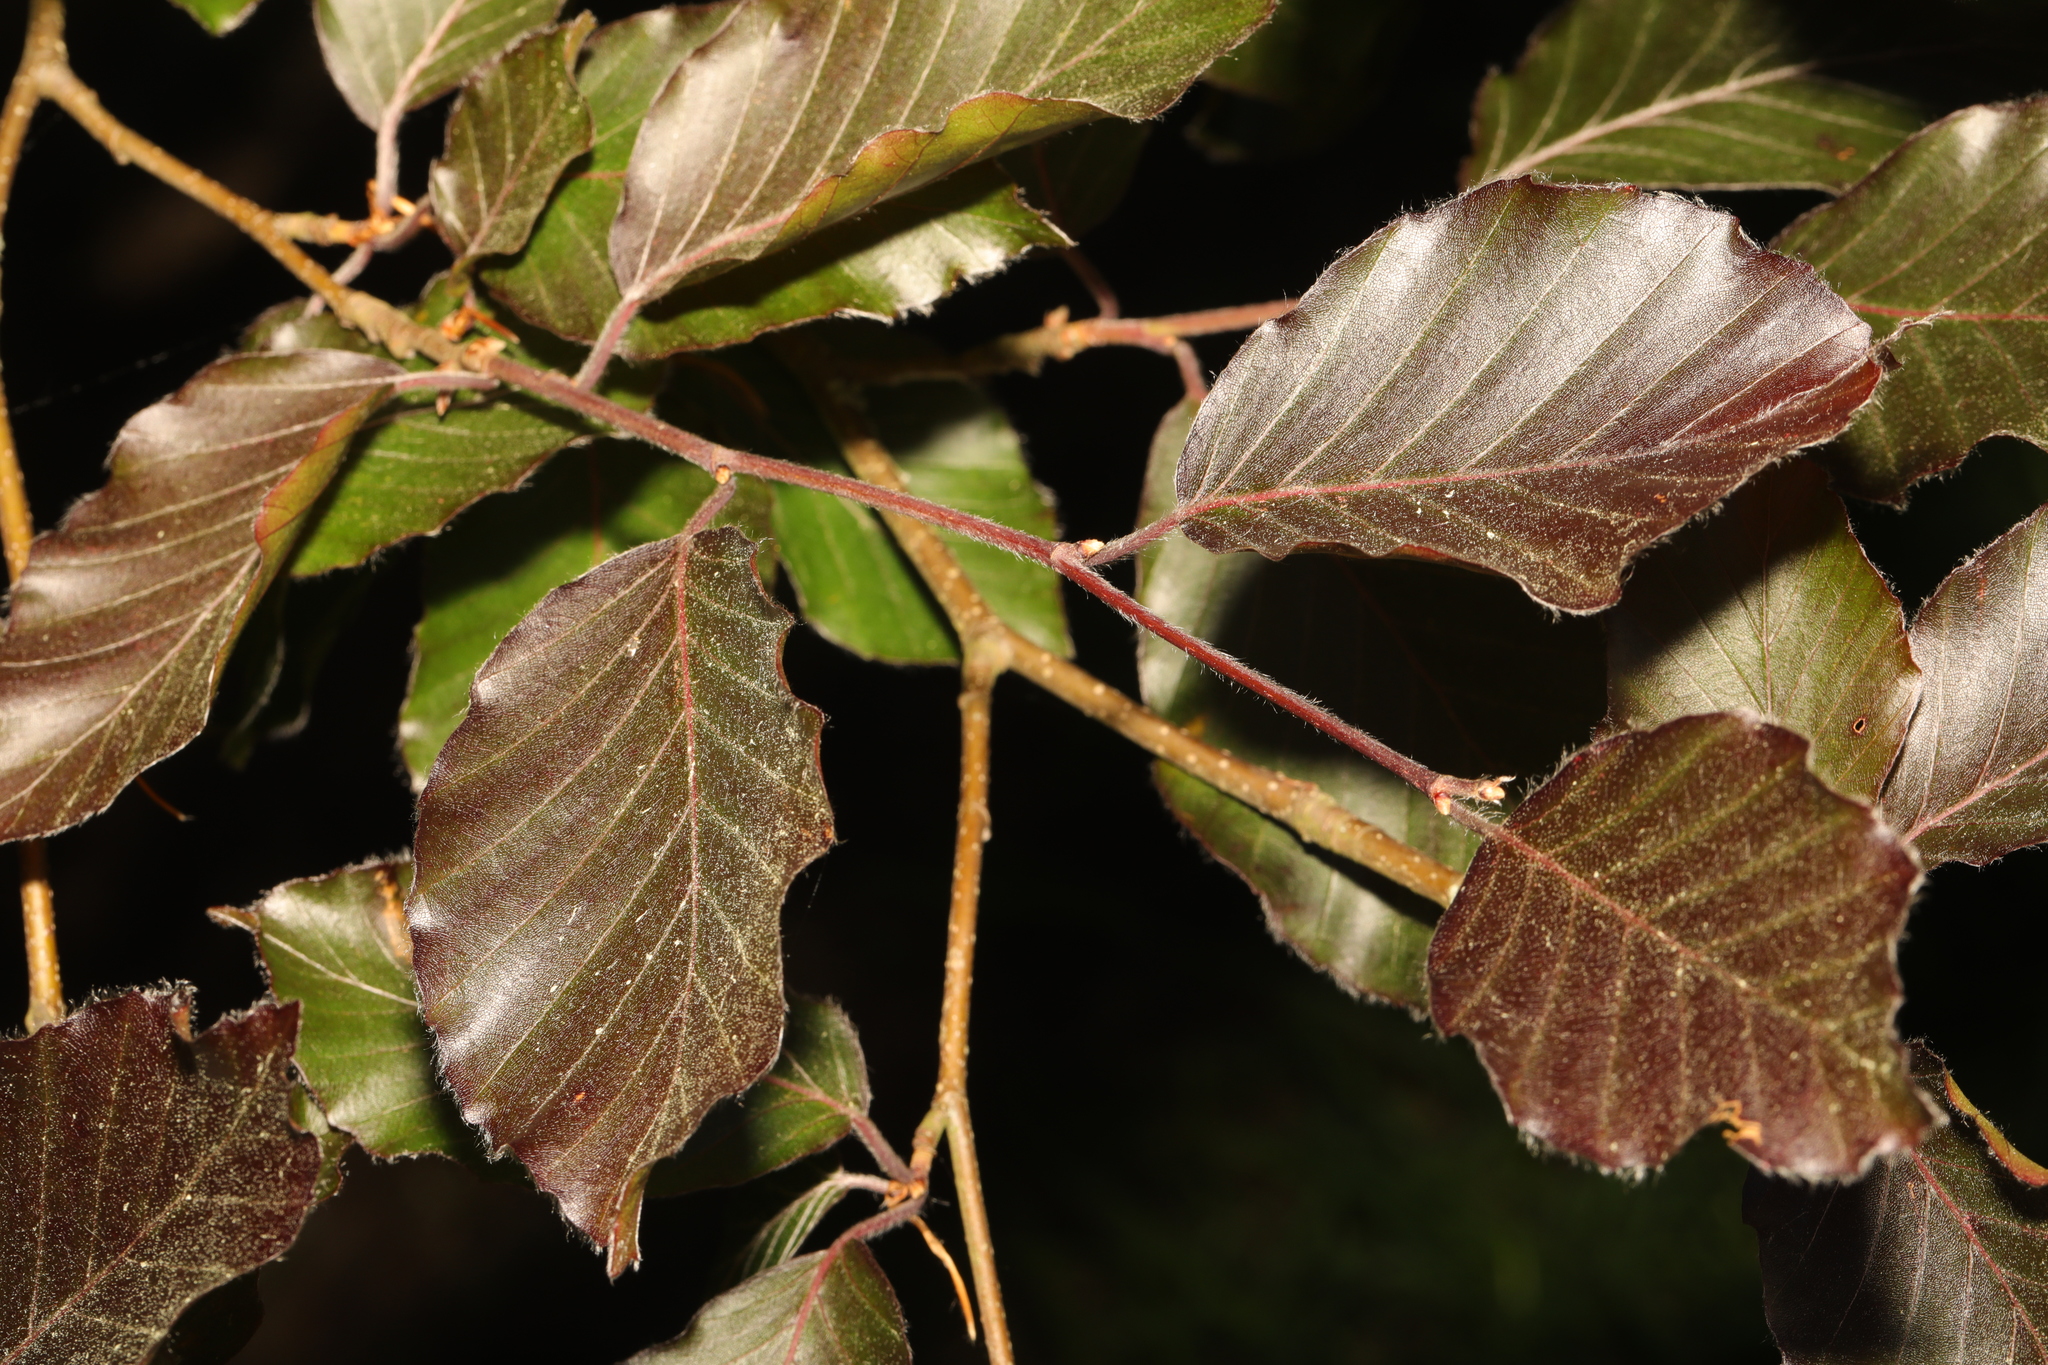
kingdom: Plantae
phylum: Tracheophyta
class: Magnoliopsida
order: Fagales
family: Fagaceae
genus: Fagus
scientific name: Fagus sylvatica
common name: Beech
